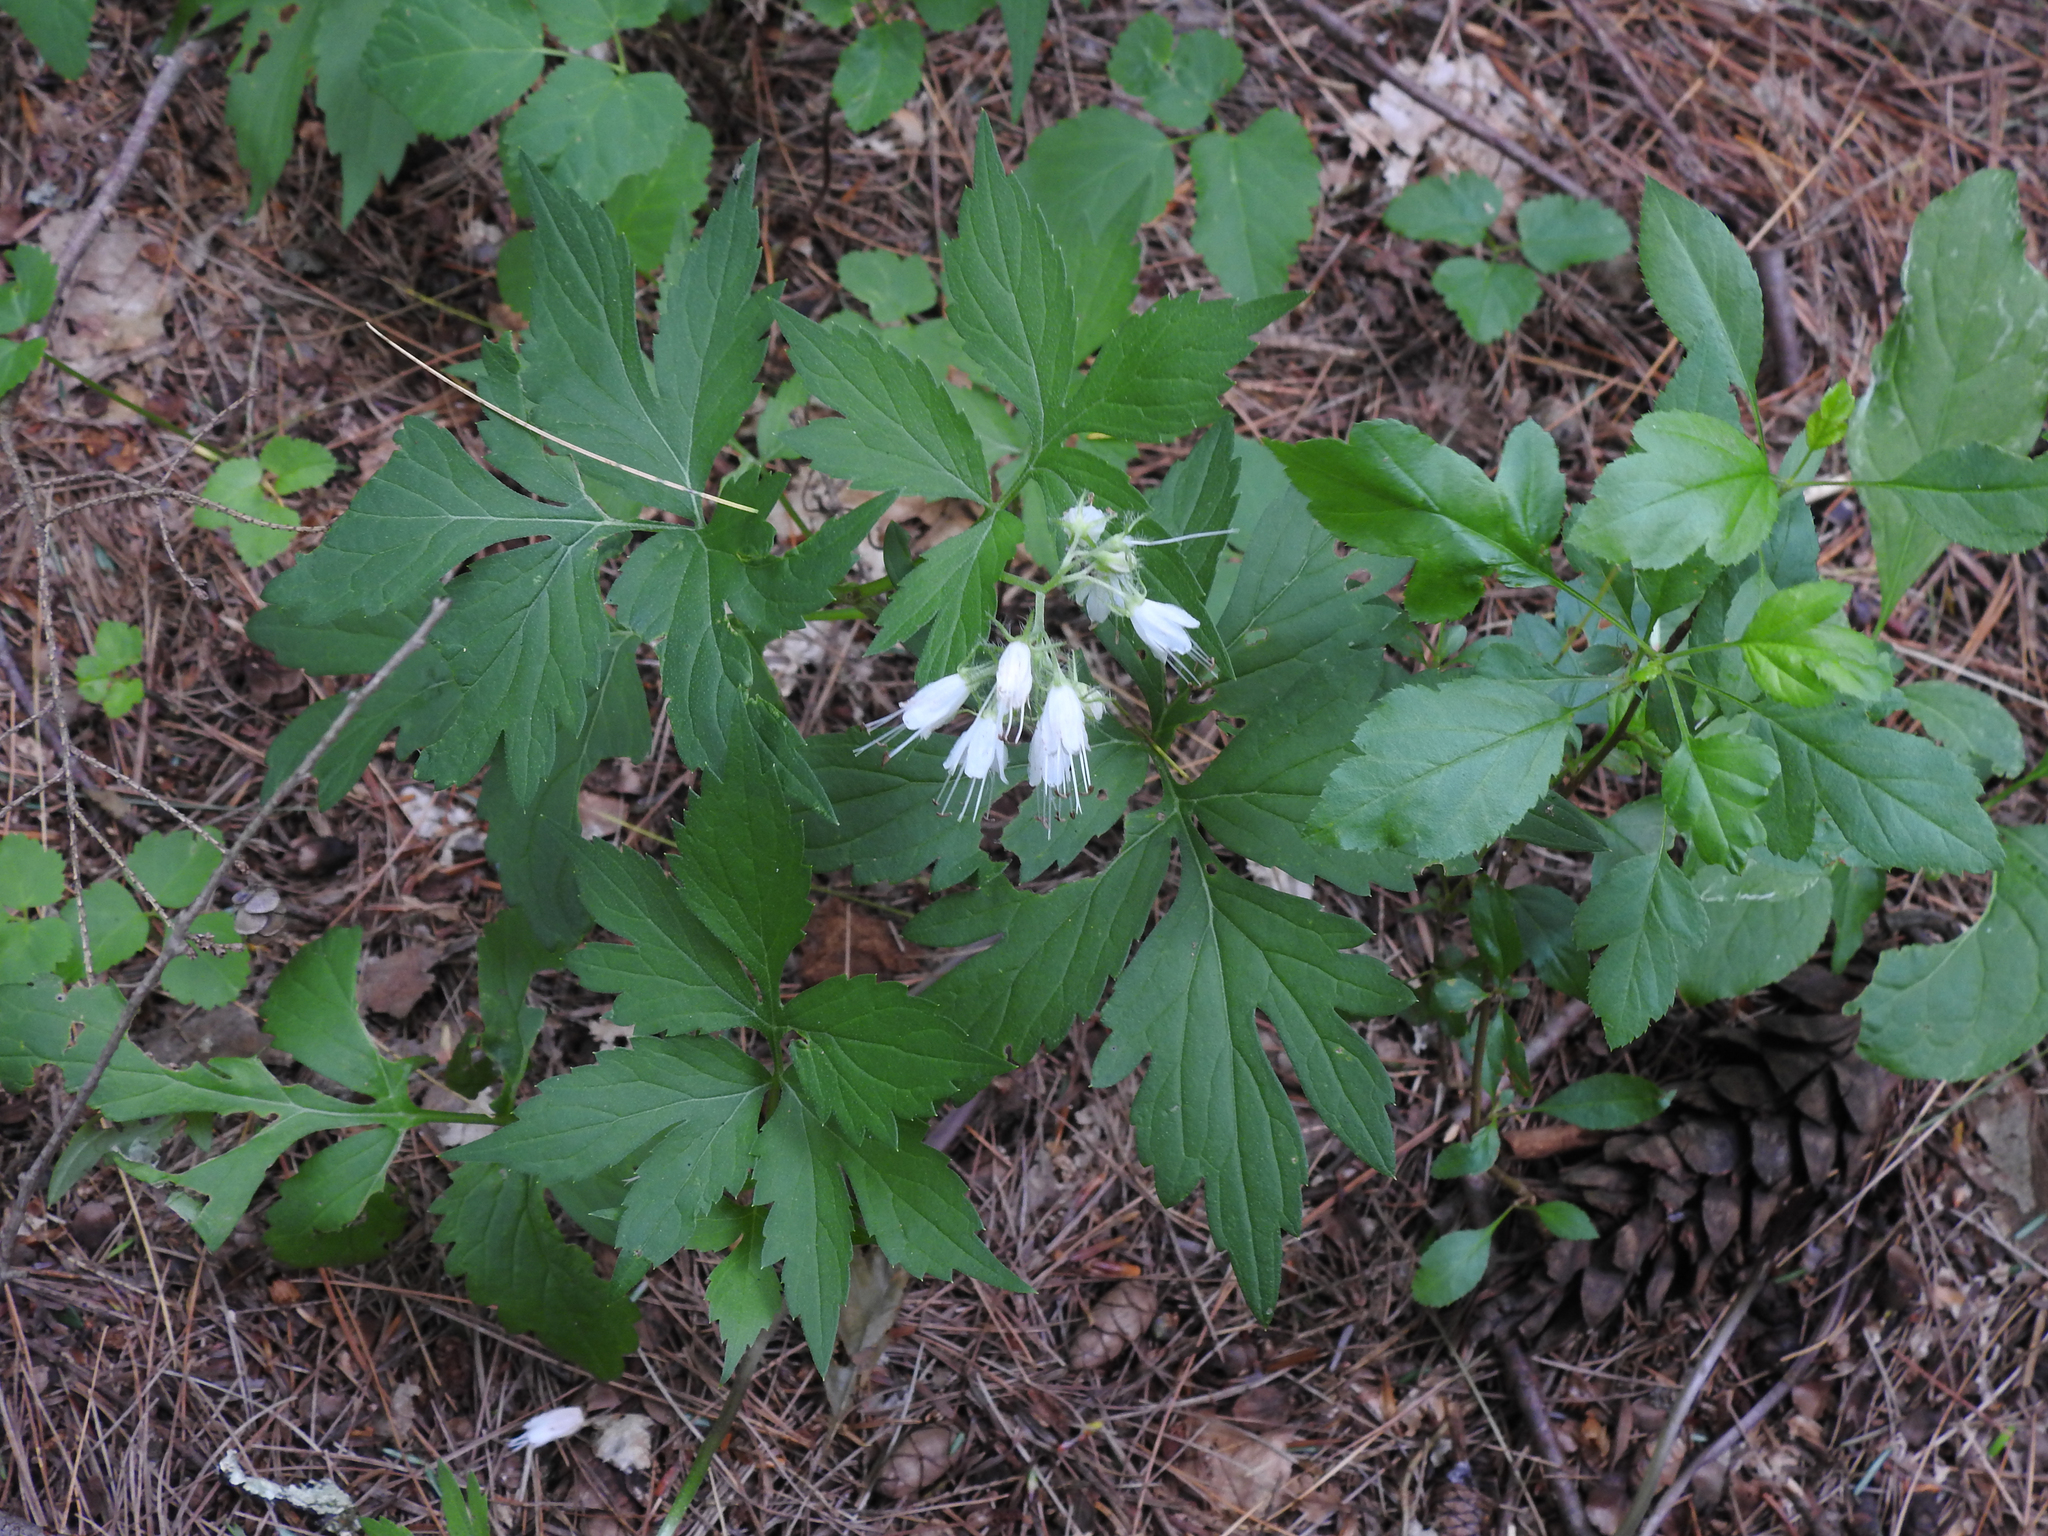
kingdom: Plantae
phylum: Tracheophyta
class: Magnoliopsida
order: Boraginales
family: Hydrophyllaceae
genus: Hydrophyllum
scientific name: Hydrophyllum virginianum
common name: Virginia waterleaf
